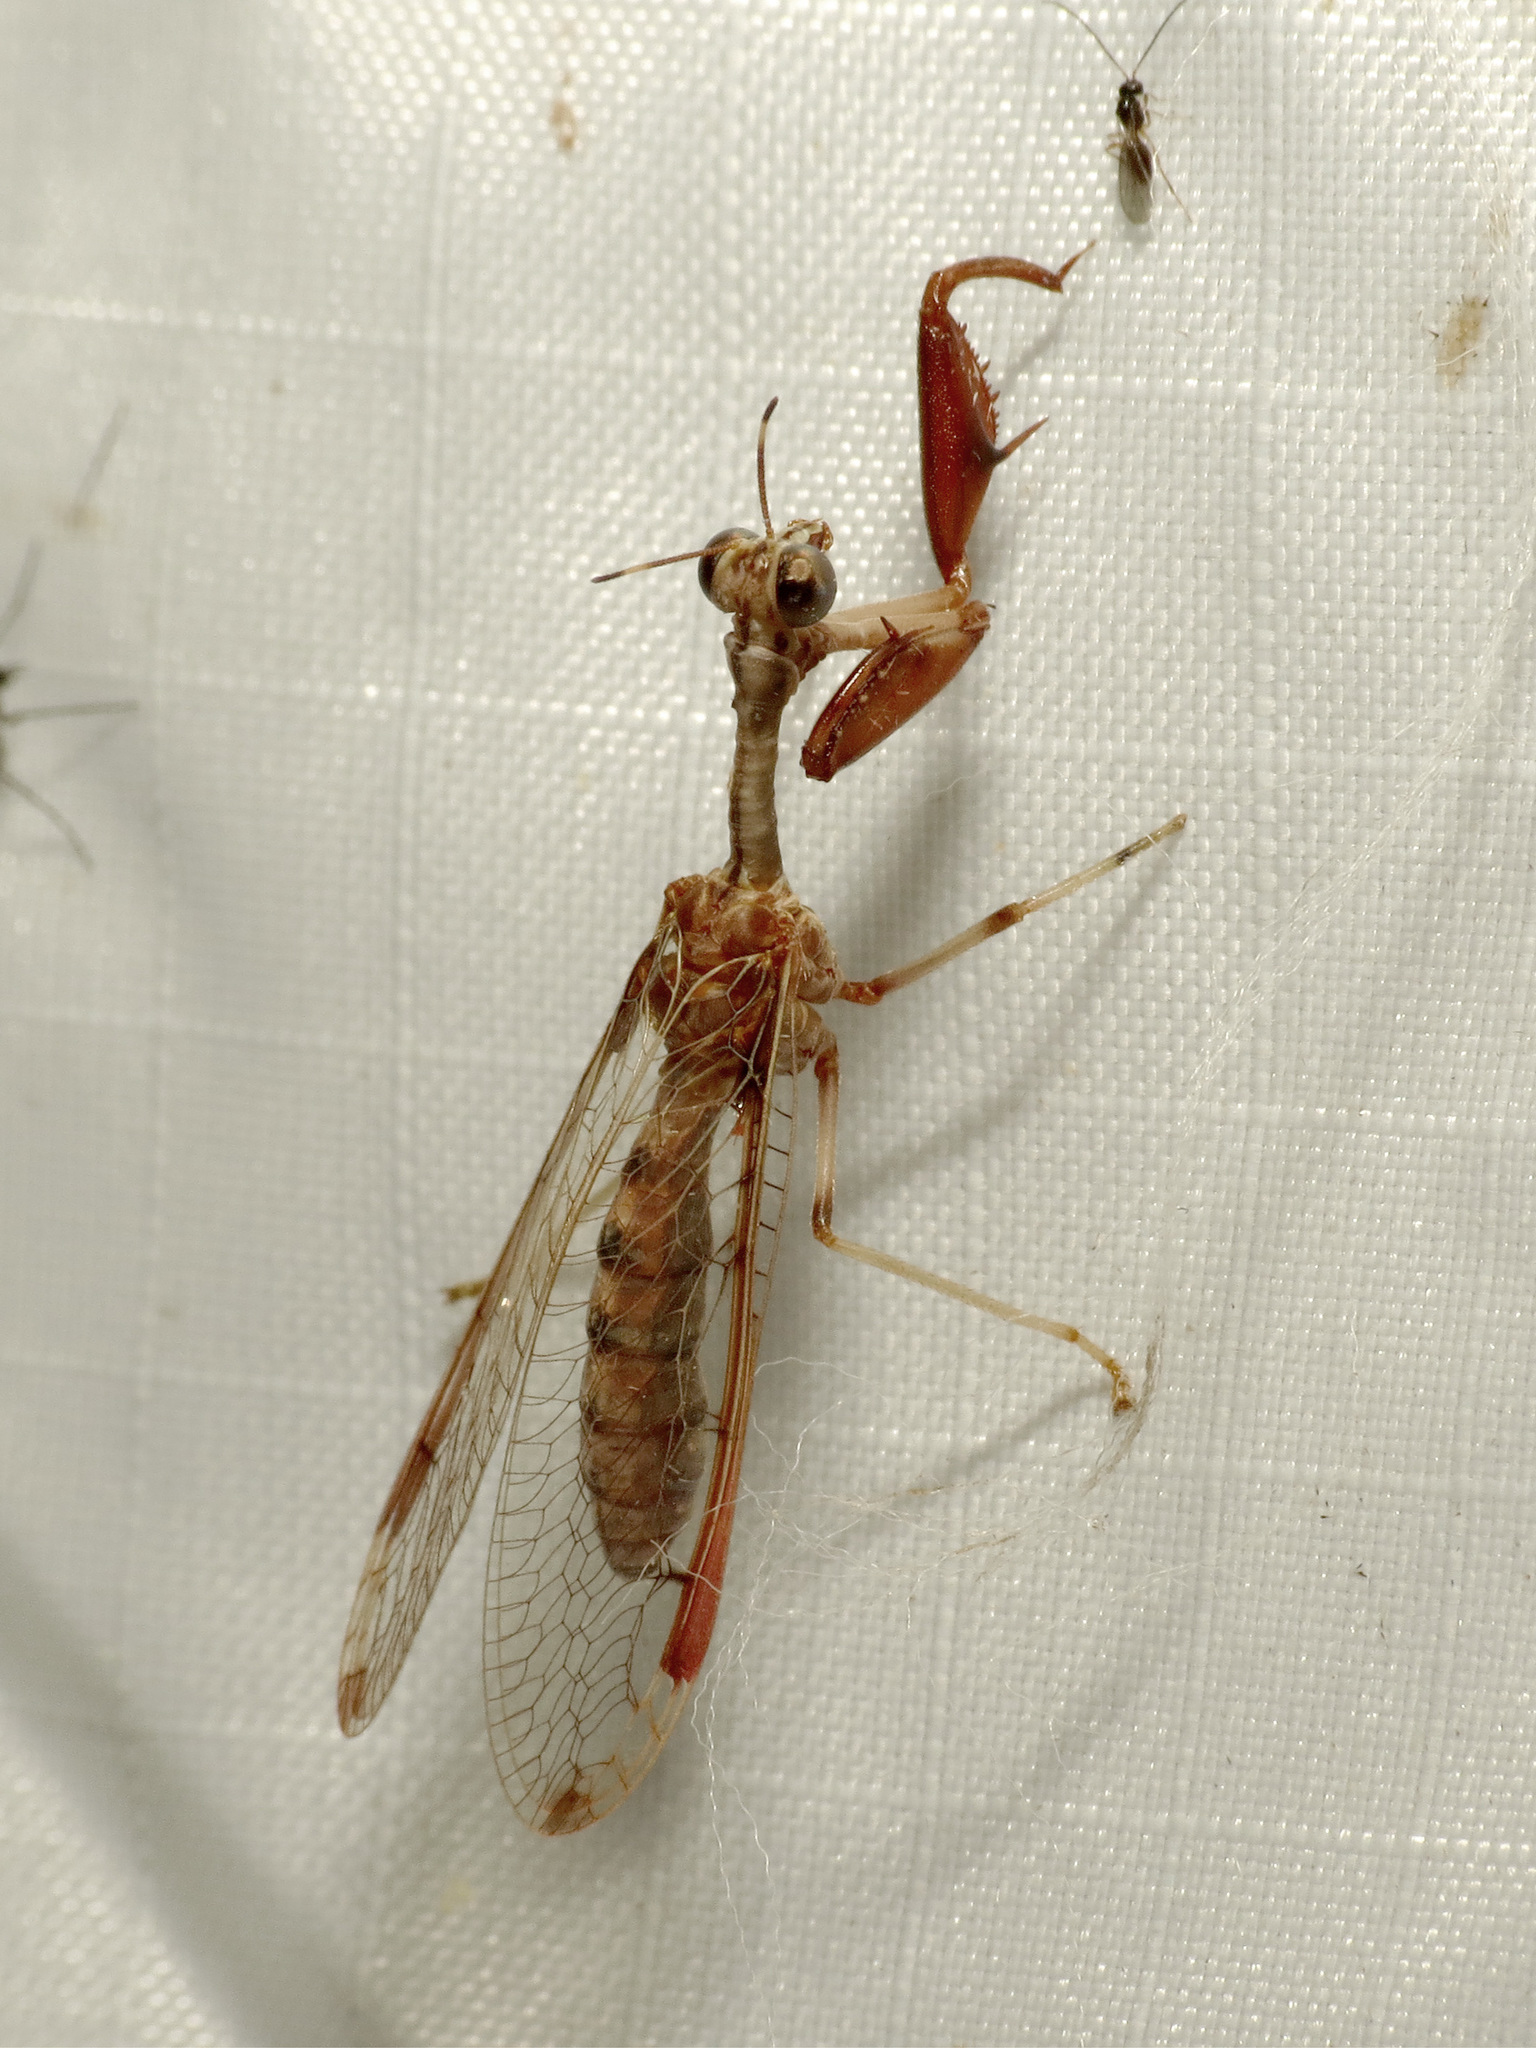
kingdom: Animalia
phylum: Arthropoda
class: Insecta
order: Neuroptera
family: Mantispidae
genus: Dicromantispa
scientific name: Dicromantispa interrupta
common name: Four-spotted mantidfly
